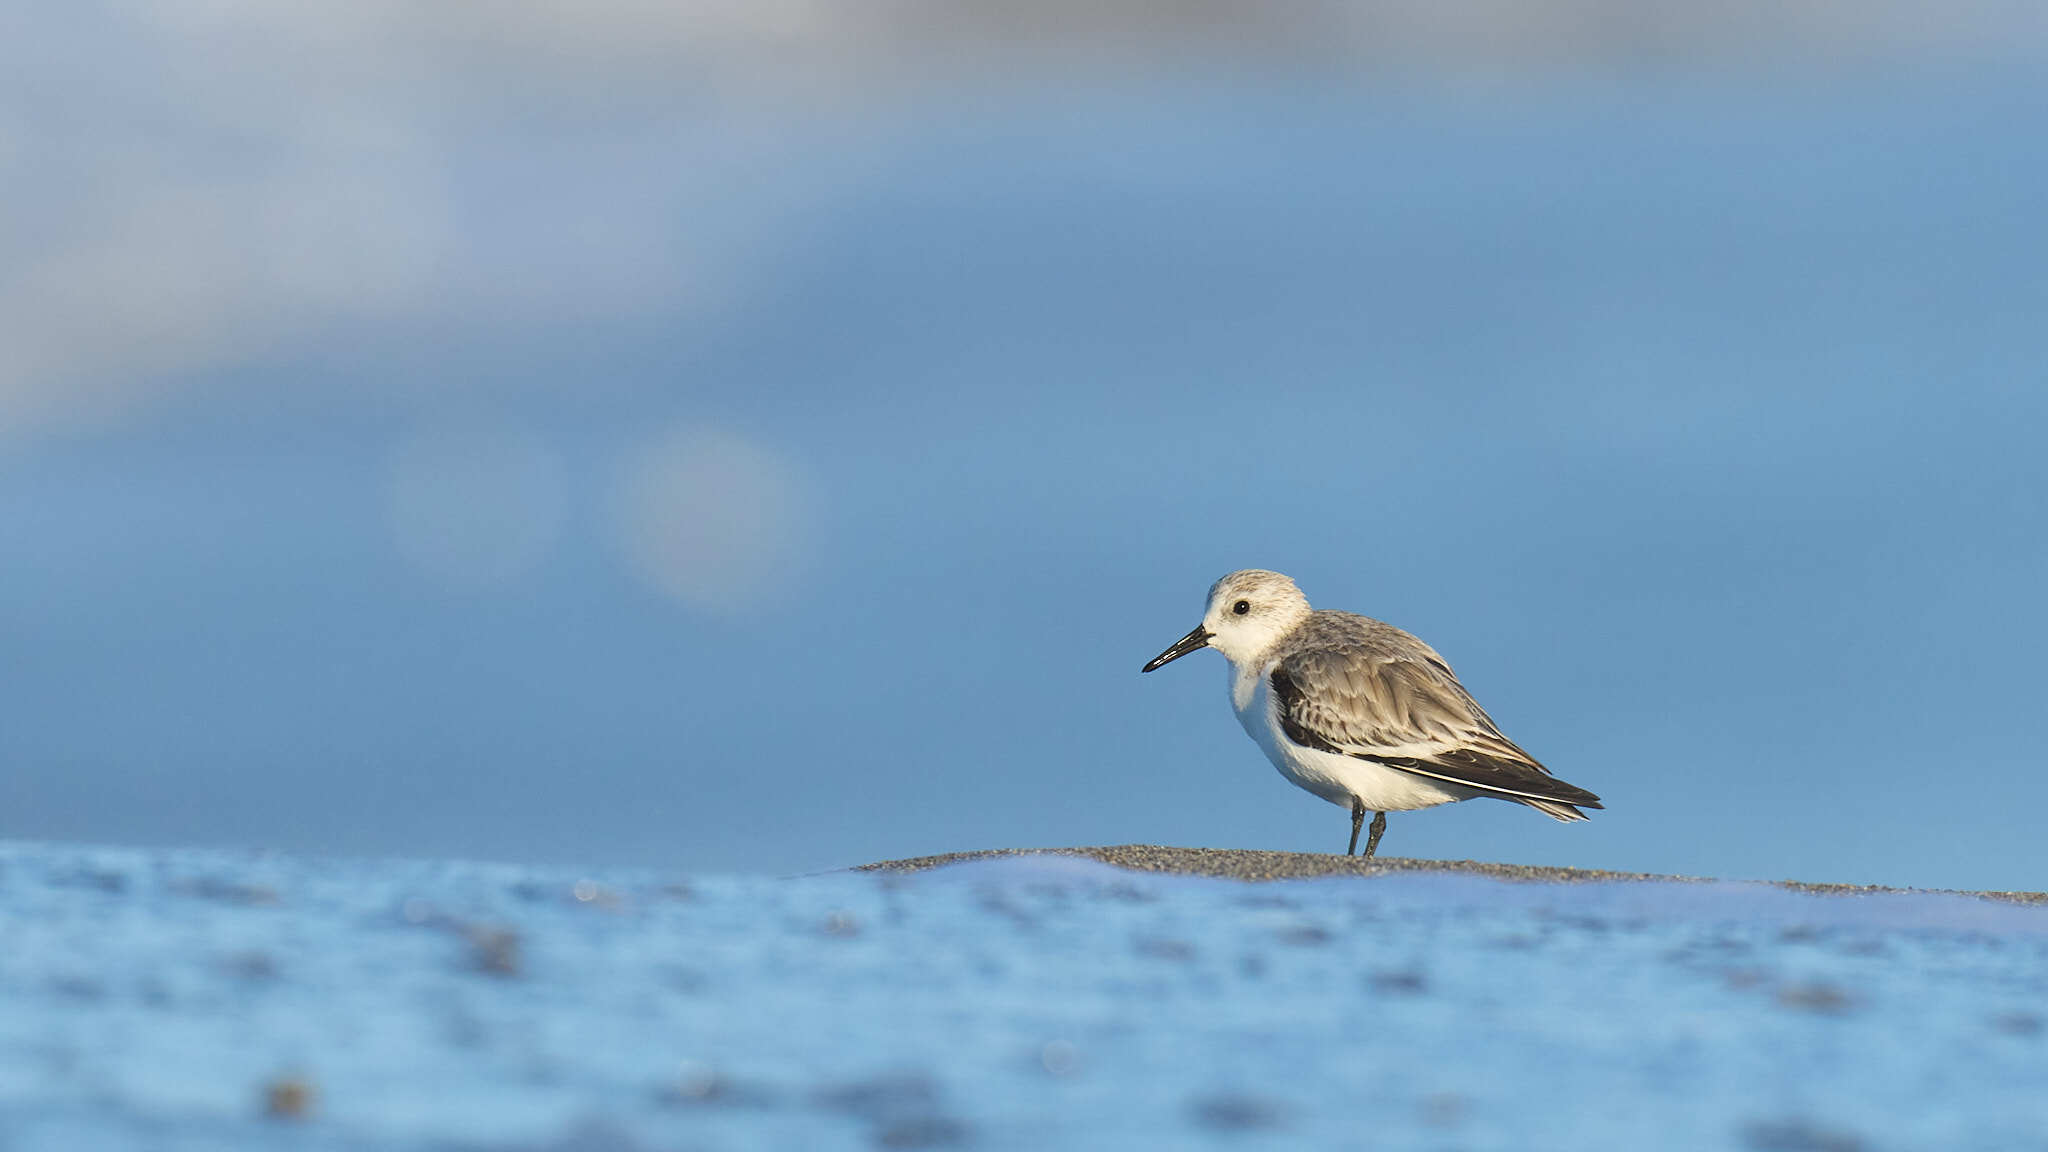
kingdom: Animalia
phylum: Chordata
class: Aves
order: Charadriiformes
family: Scolopacidae
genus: Calidris
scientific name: Calidris alba
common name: Sanderling
